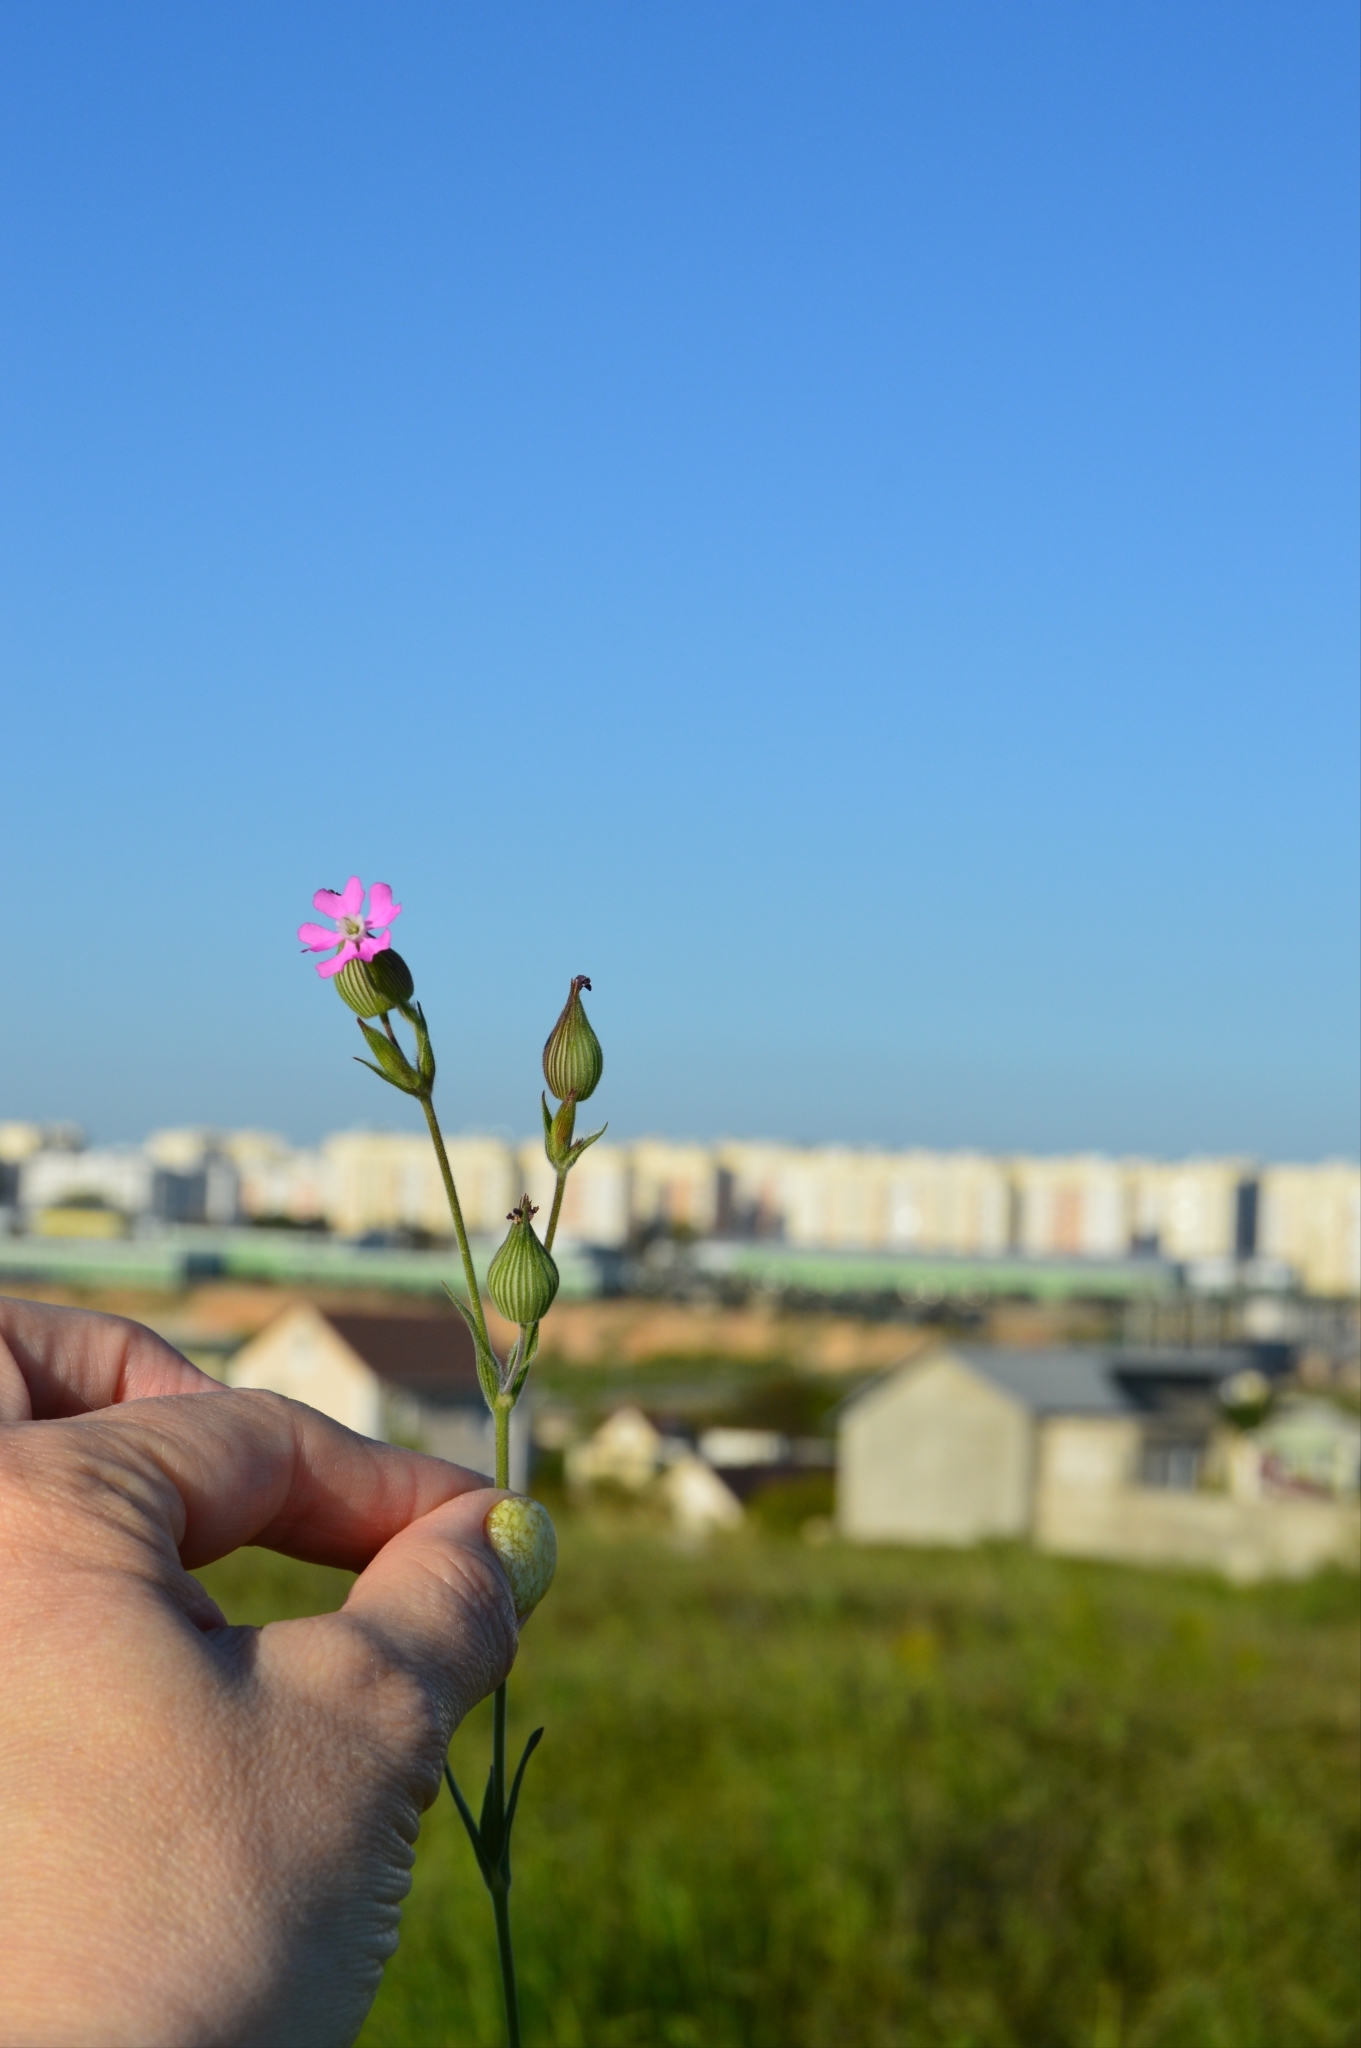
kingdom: Plantae
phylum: Tracheophyta
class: Magnoliopsida
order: Caryophyllales
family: Caryophyllaceae
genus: Silene
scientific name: Silene conica
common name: Sand catchfly
